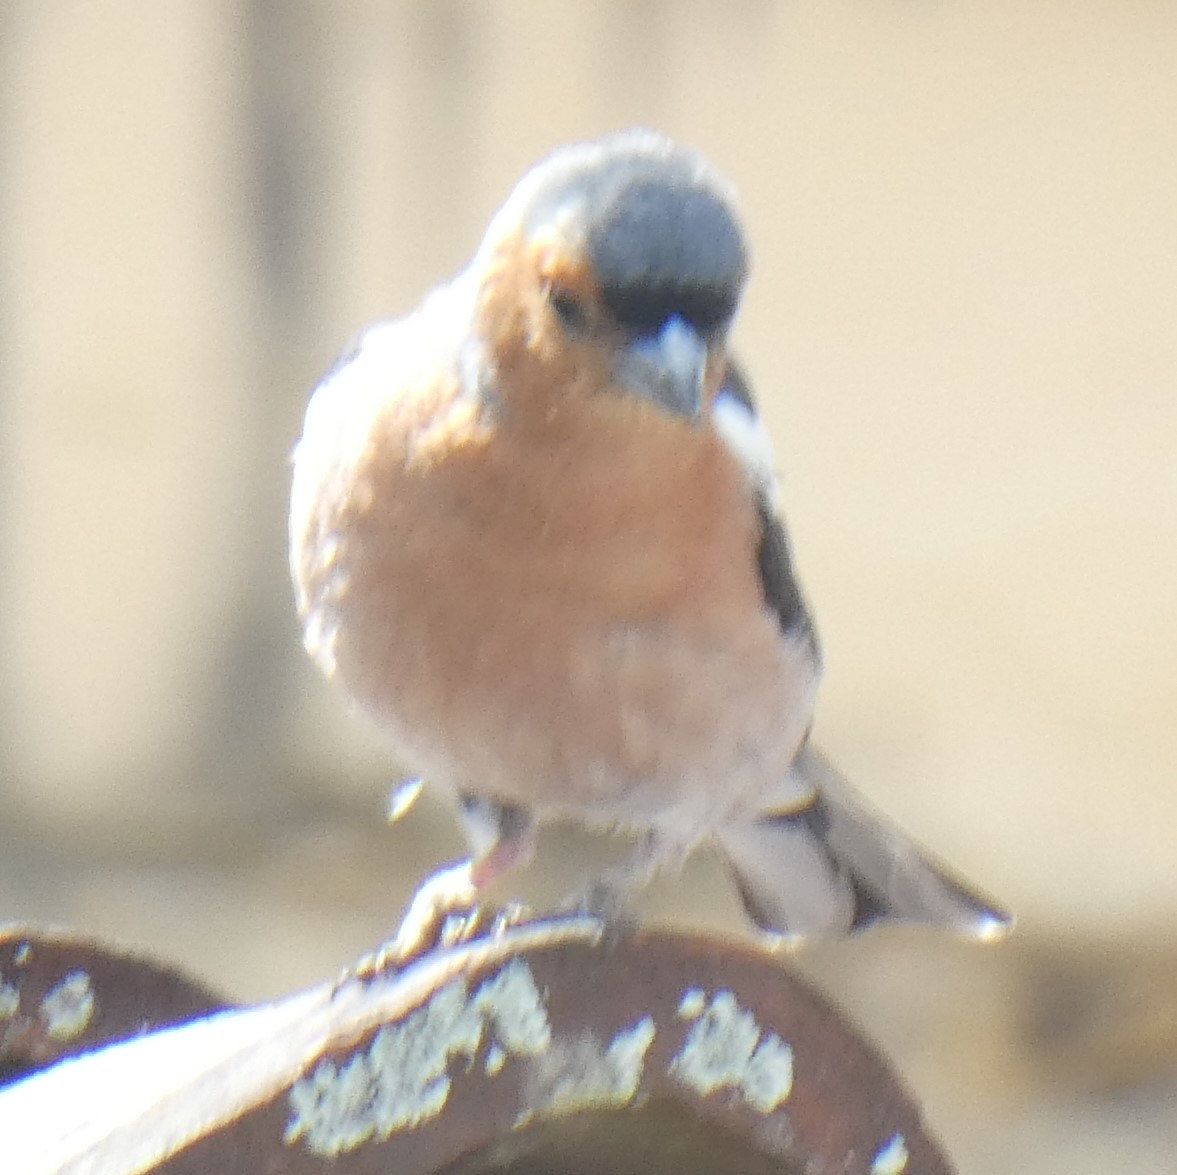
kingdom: Animalia
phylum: Chordata
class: Aves
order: Passeriformes
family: Fringillidae
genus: Fringilla
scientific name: Fringilla coelebs
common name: Common chaffinch
